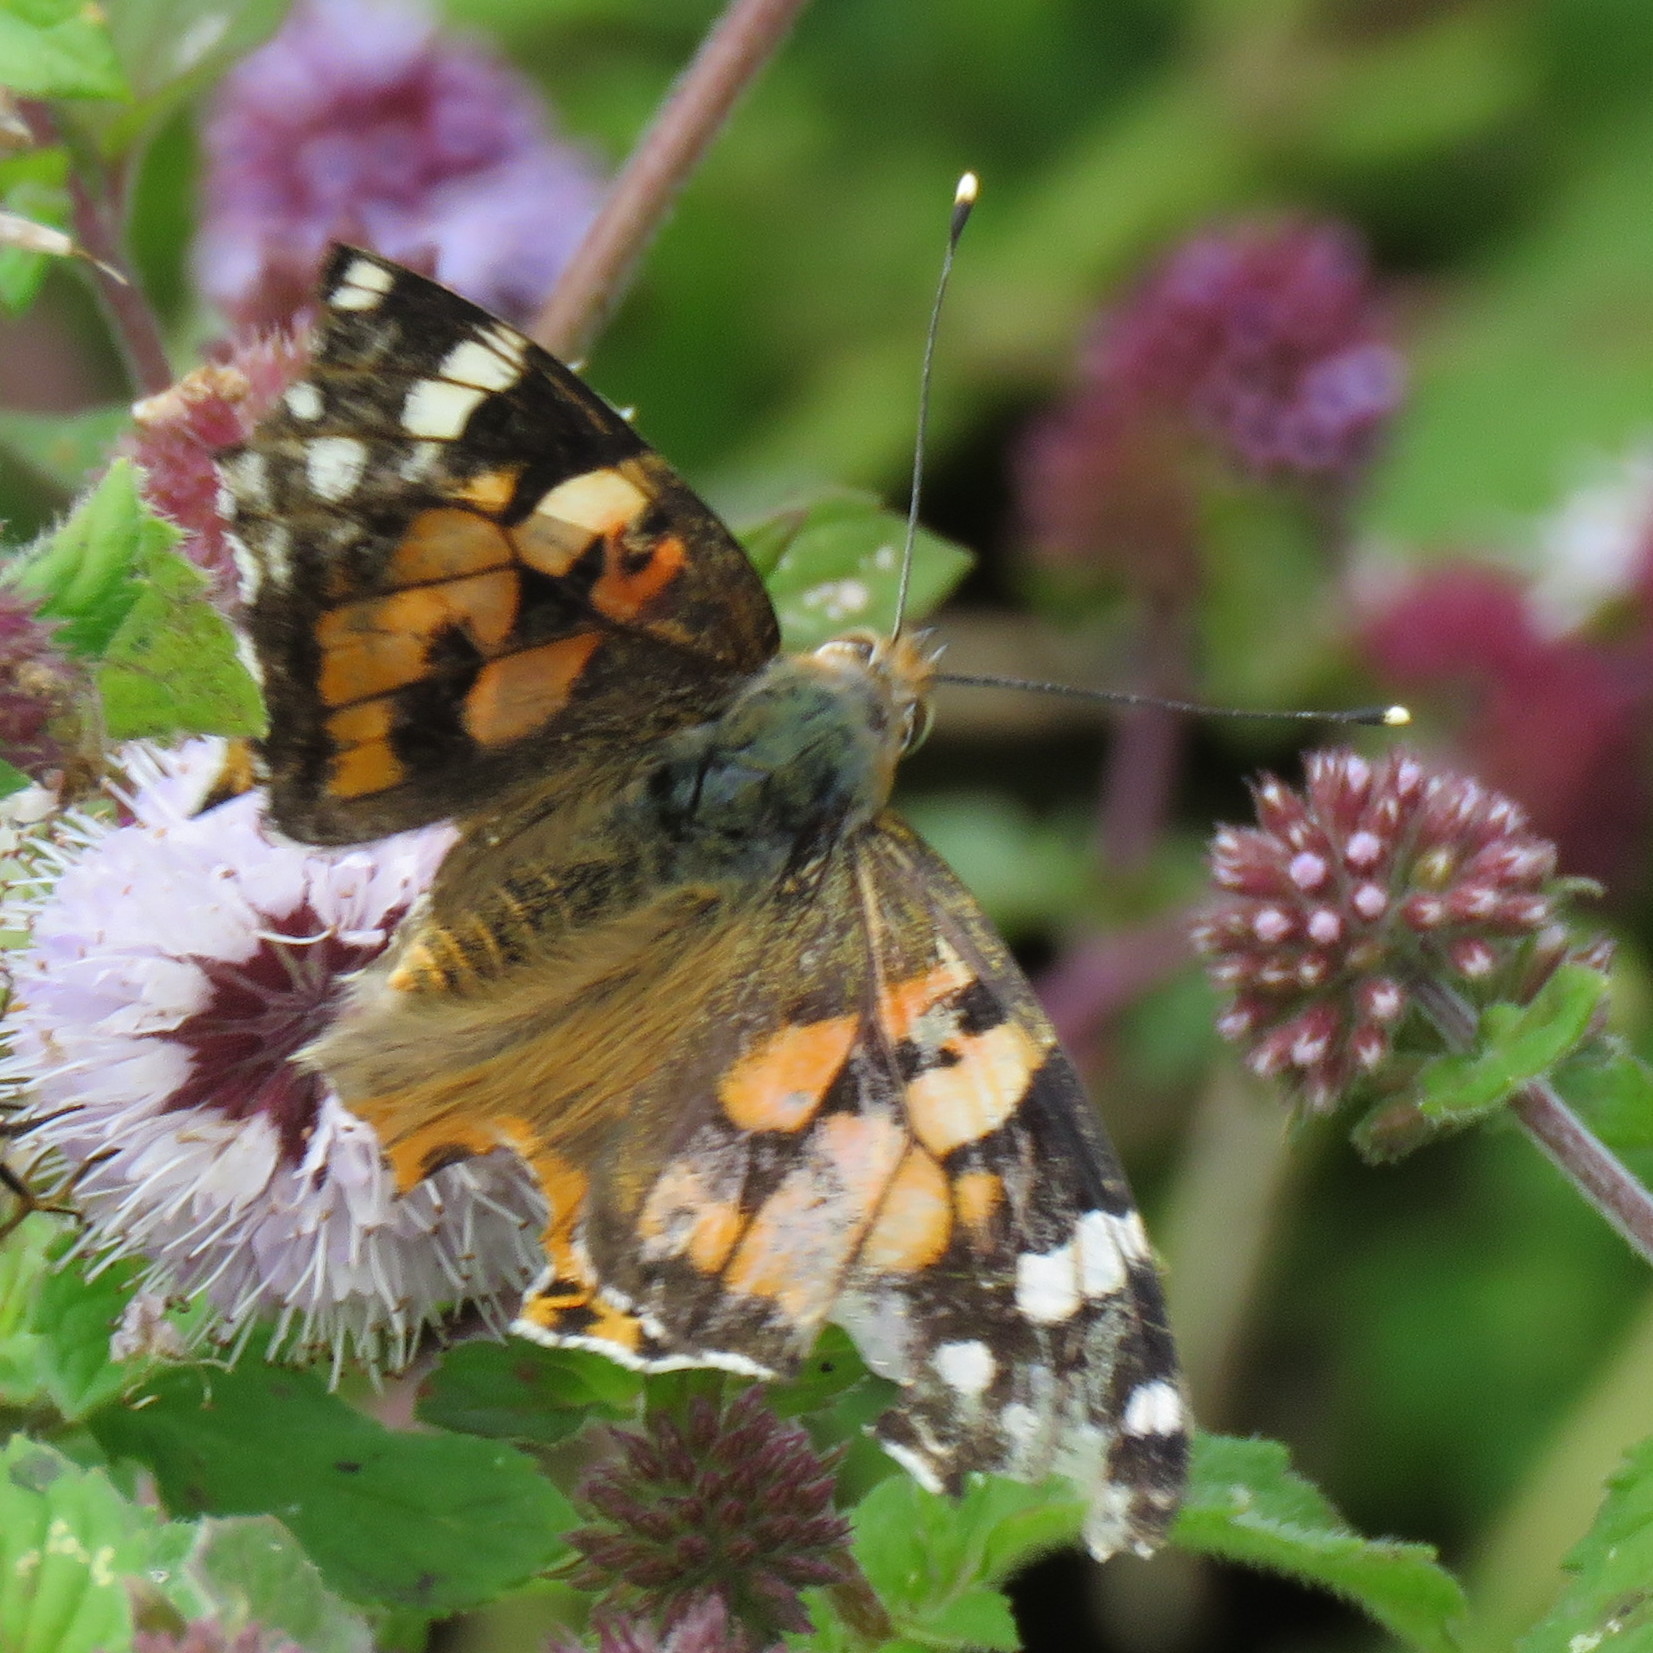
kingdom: Animalia
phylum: Arthropoda
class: Insecta
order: Lepidoptera
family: Nymphalidae
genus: Vanessa
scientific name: Vanessa cardui
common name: Painted lady
